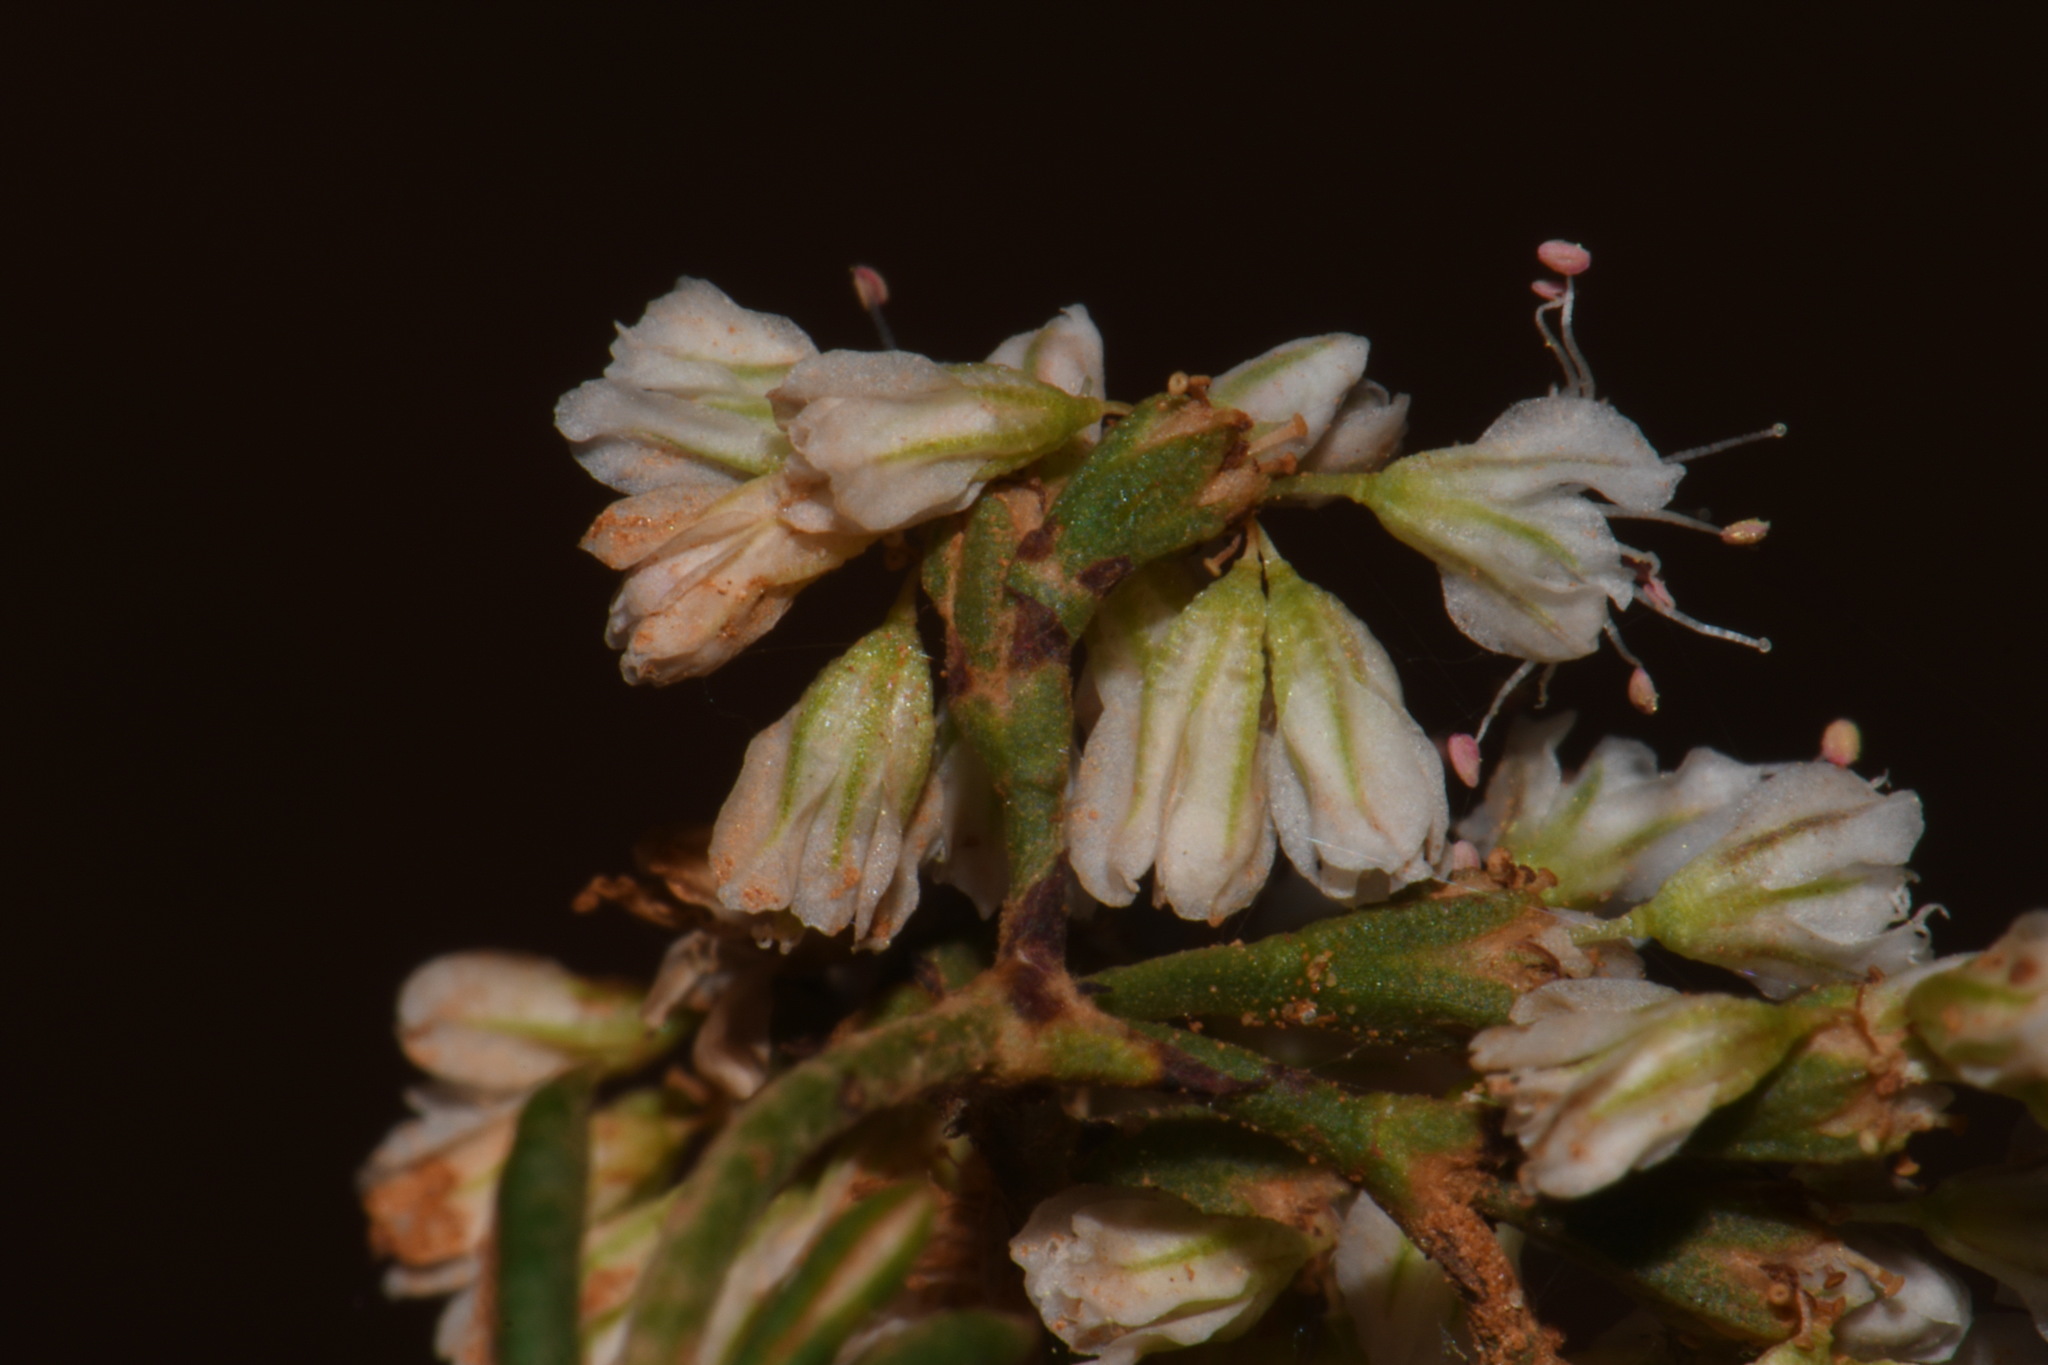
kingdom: Plantae
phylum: Tracheophyta
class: Magnoliopsida
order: Caryophyllales
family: Polygonaceae
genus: Eriogonum
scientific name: Eriogonum microtheca
